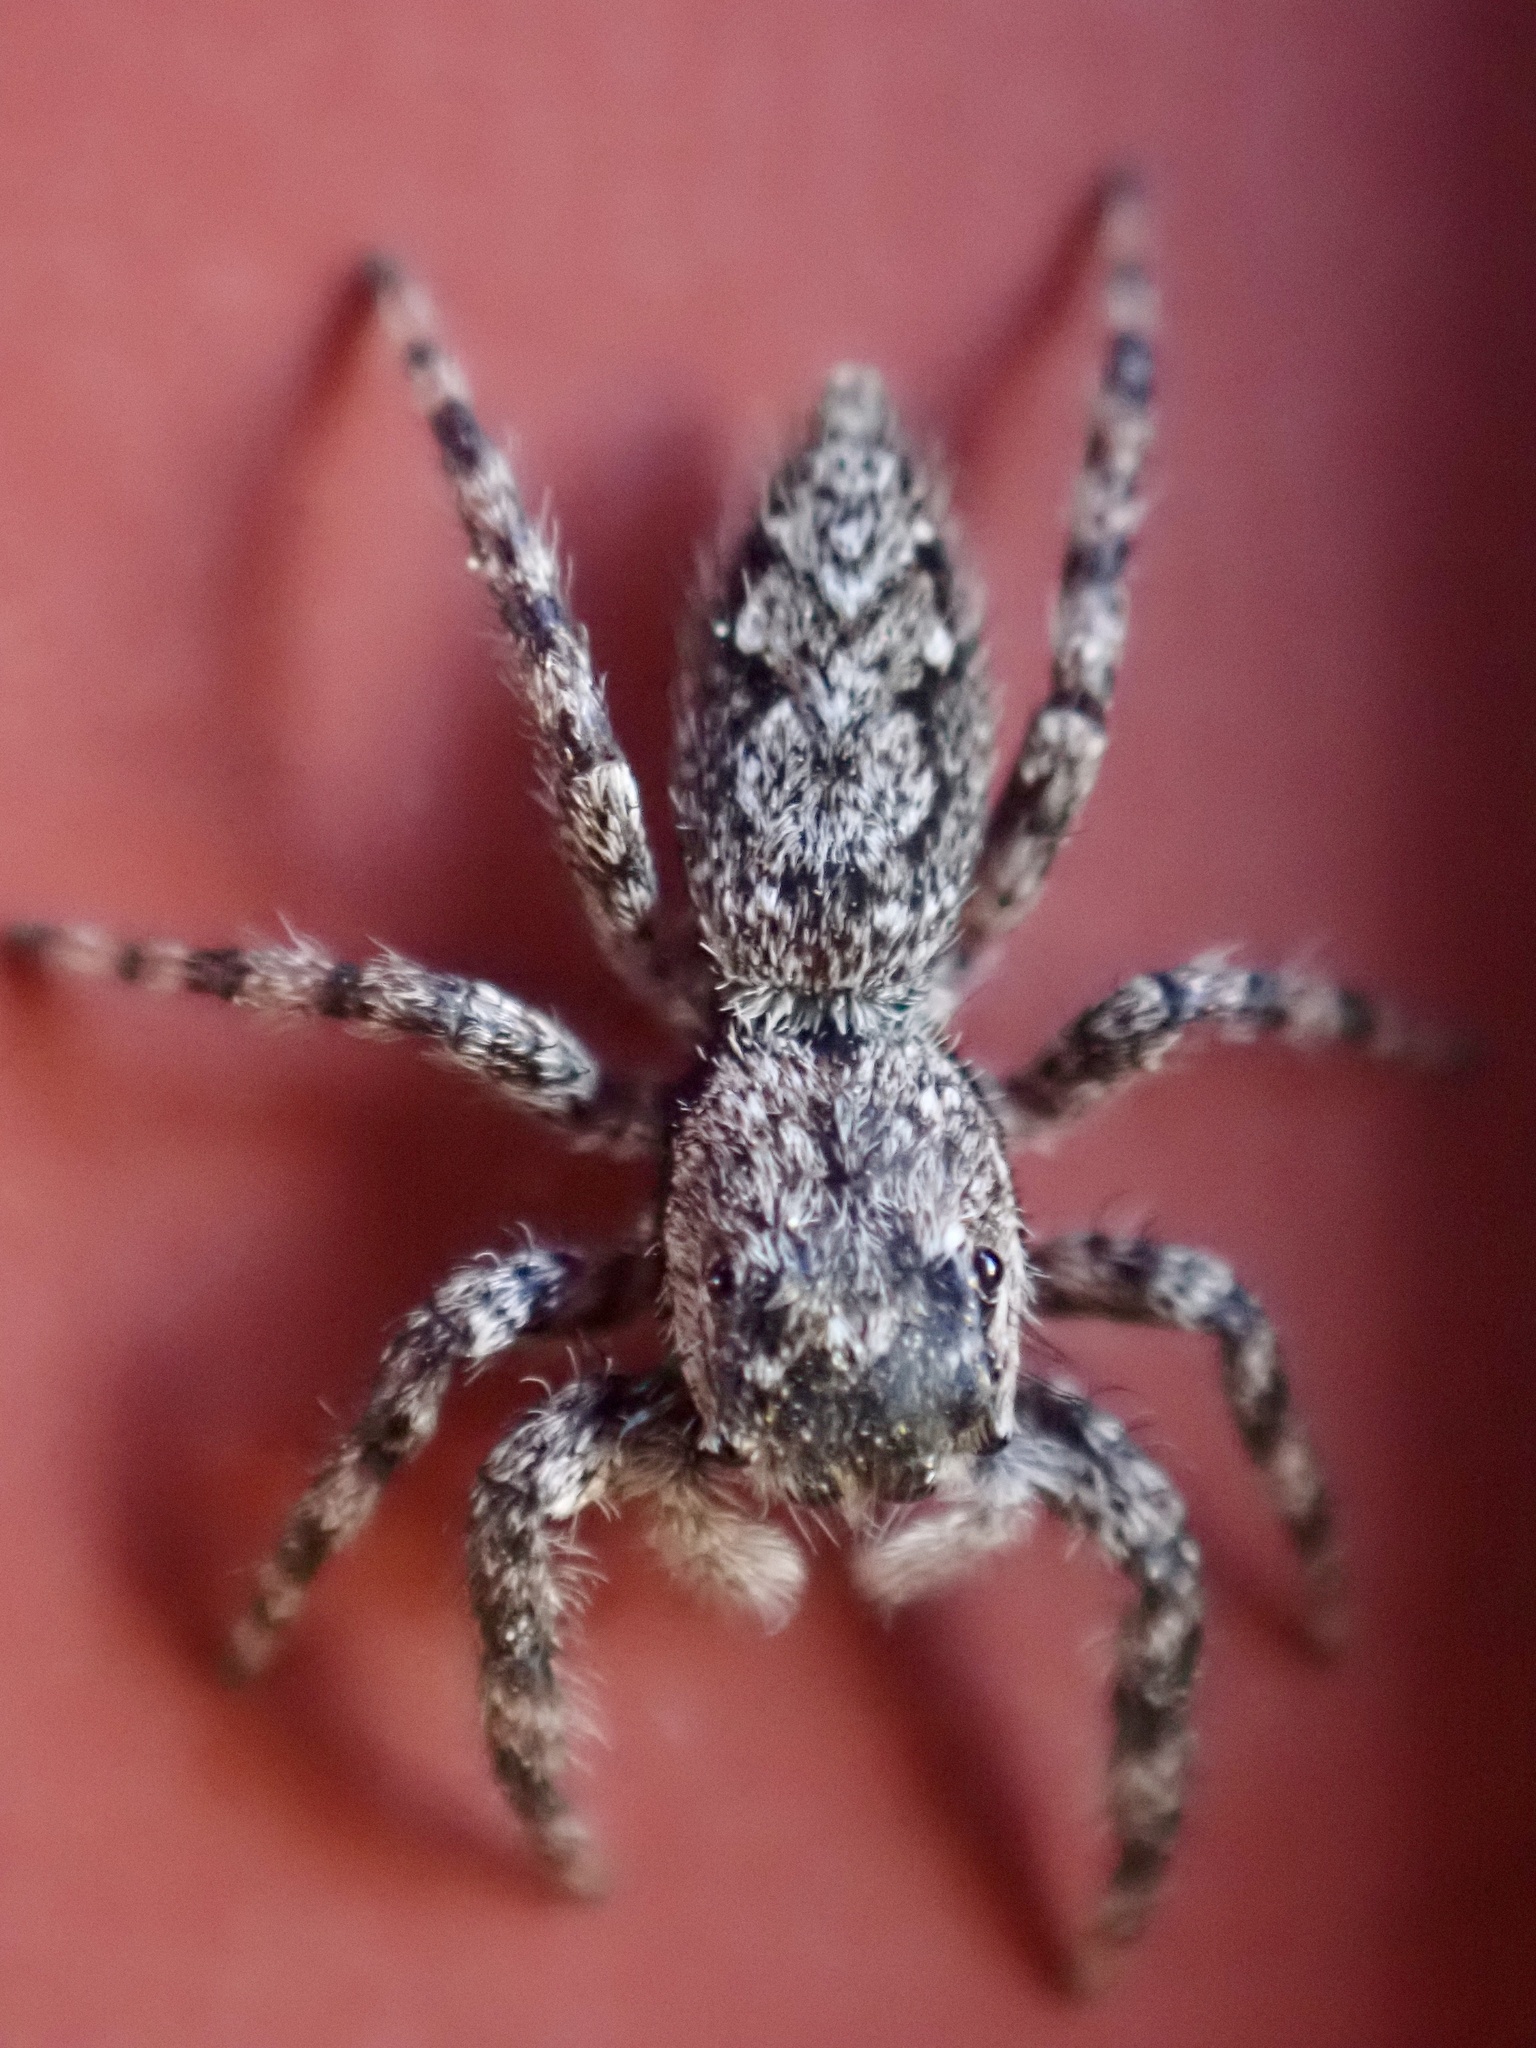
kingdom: Animalia
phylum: Arthropoda
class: Arachnida
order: Araneae
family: Salticidae
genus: Platycryptus
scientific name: Platycryptus undatus
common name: Tan jumping spider
